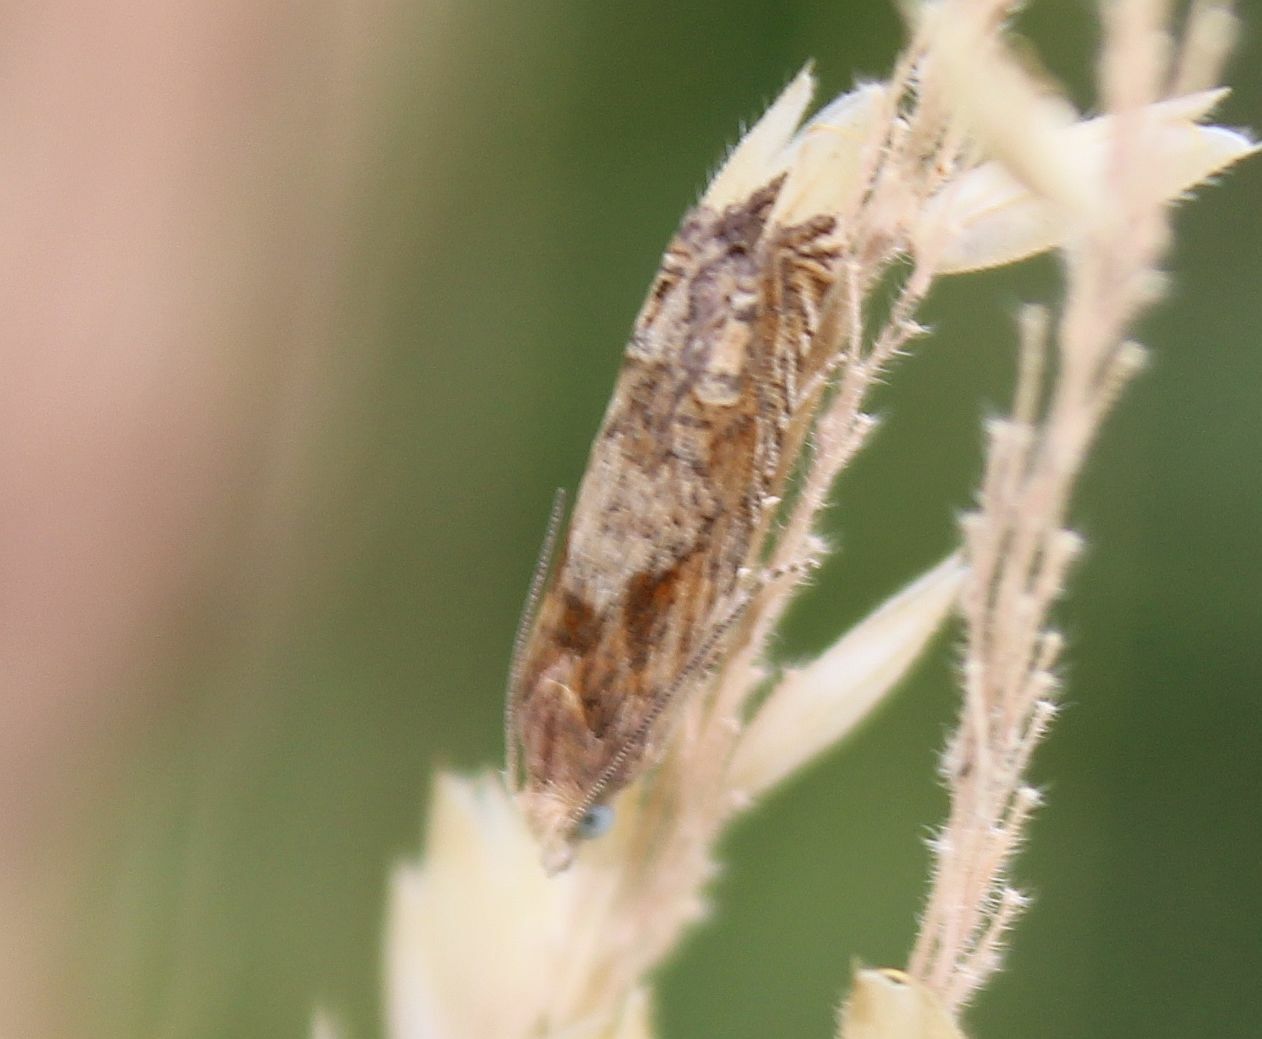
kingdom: Animalia
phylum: Arthropoda
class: Insecta
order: Lepidoptera
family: Tortricidae
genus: Eucosma
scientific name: Eucosma hohenwartiana
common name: Bright bell
